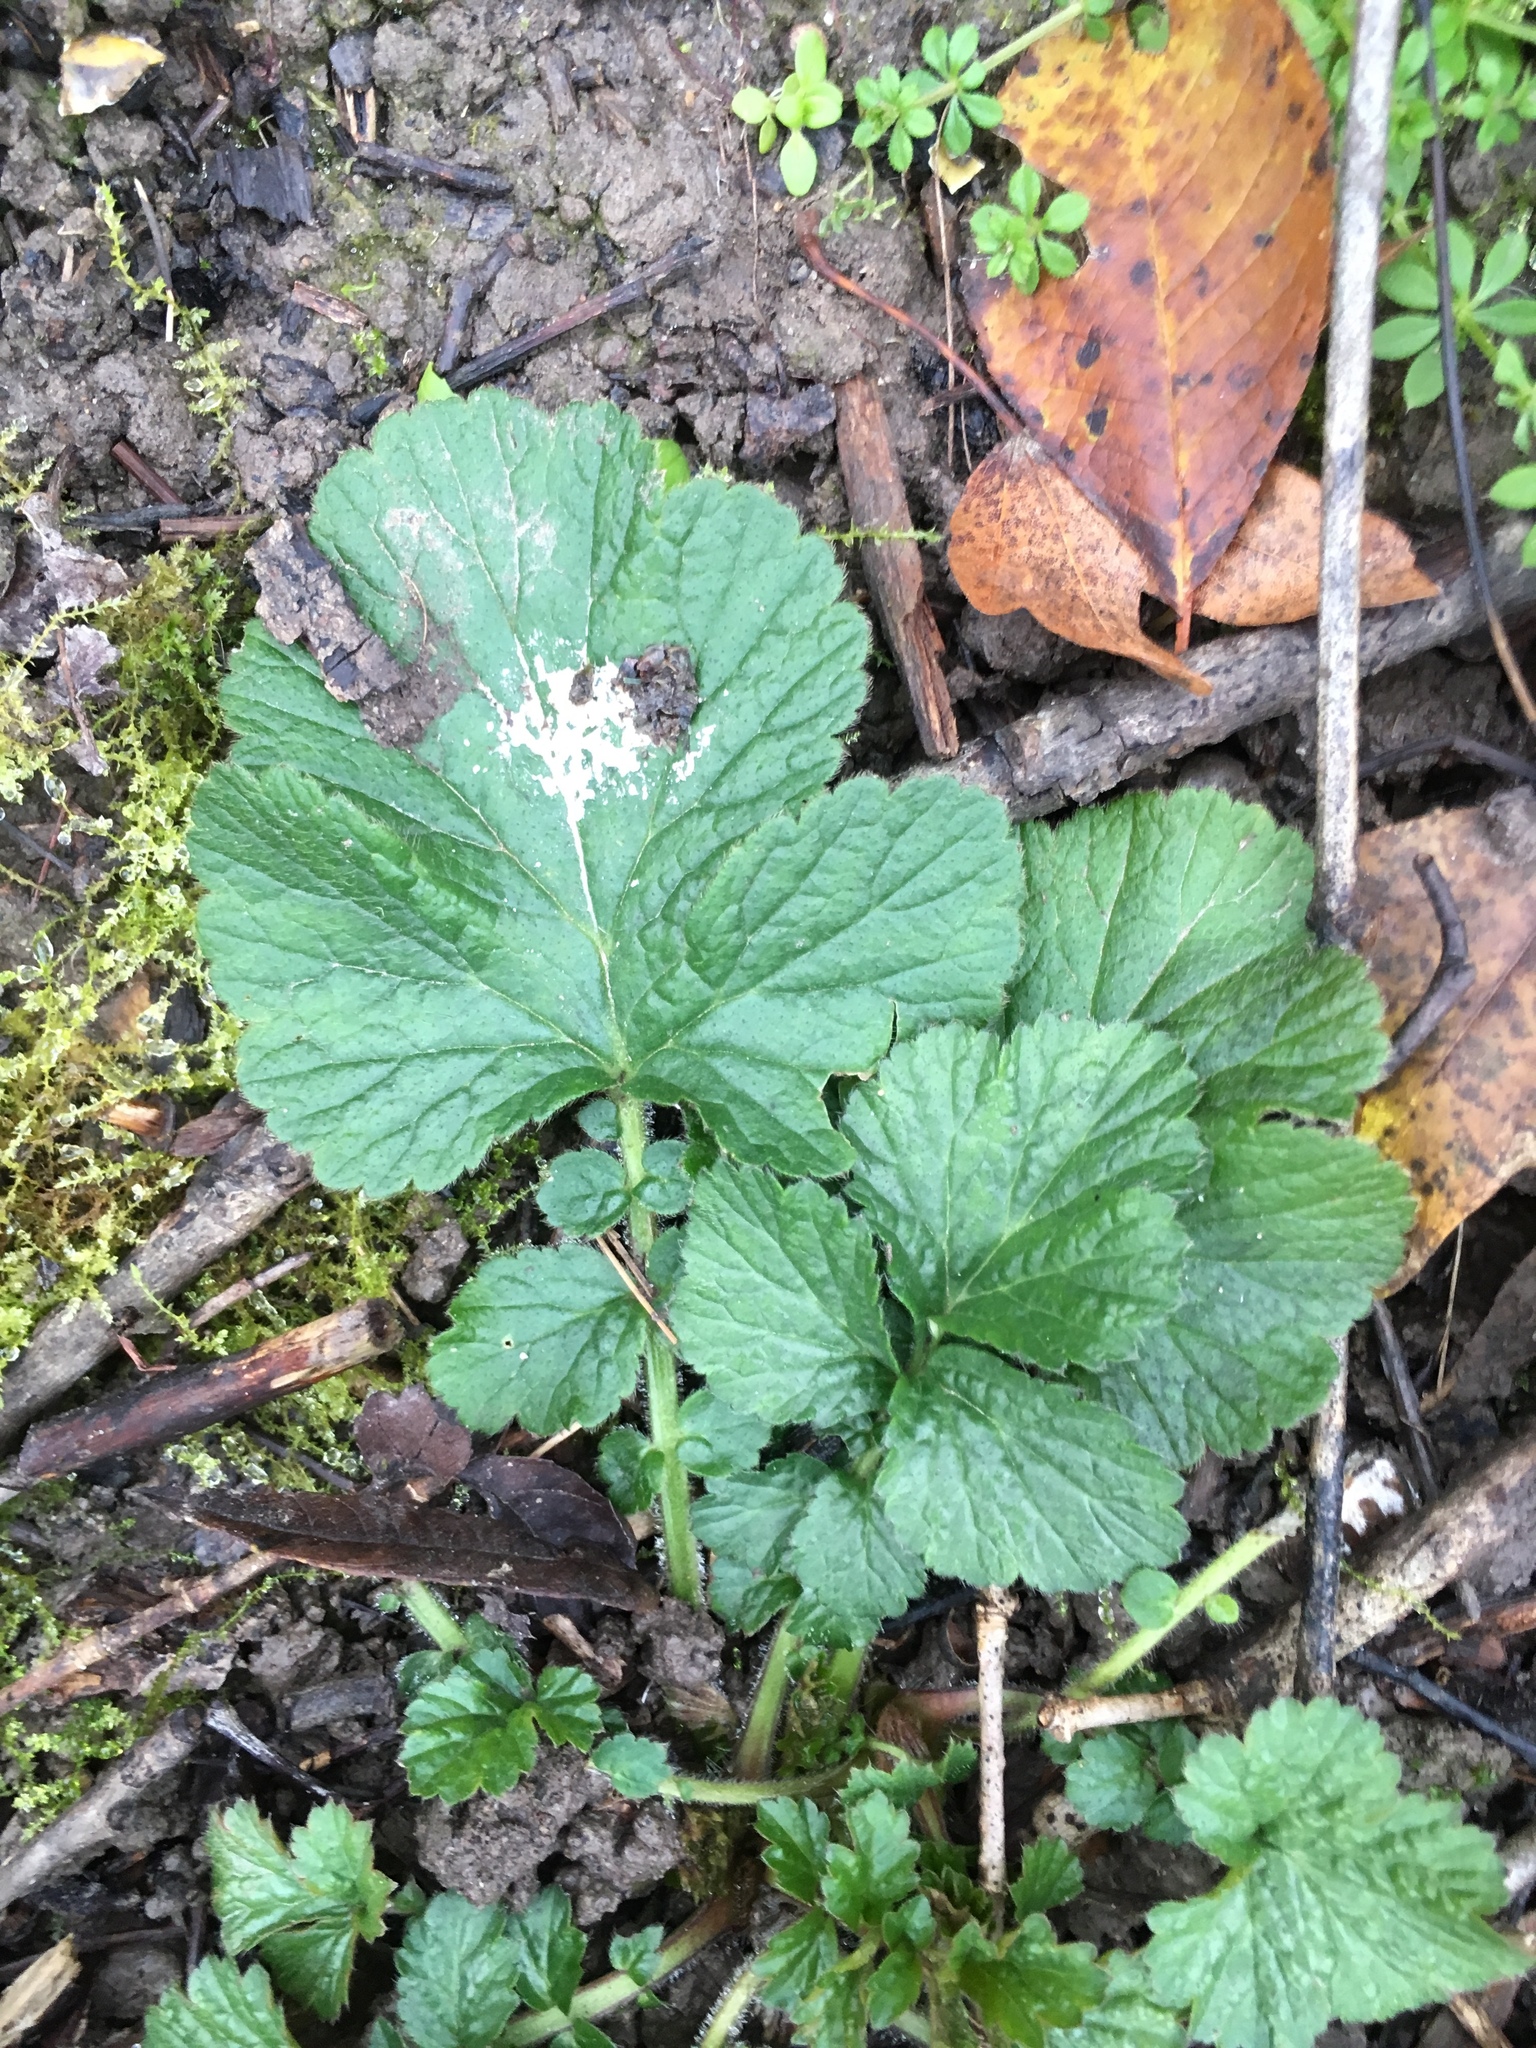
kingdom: Plantae
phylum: Tracheophyta
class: Magnoliopsida
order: Rosales
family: Rosaceae
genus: Geum
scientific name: Geum urbanum
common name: Wood avens
